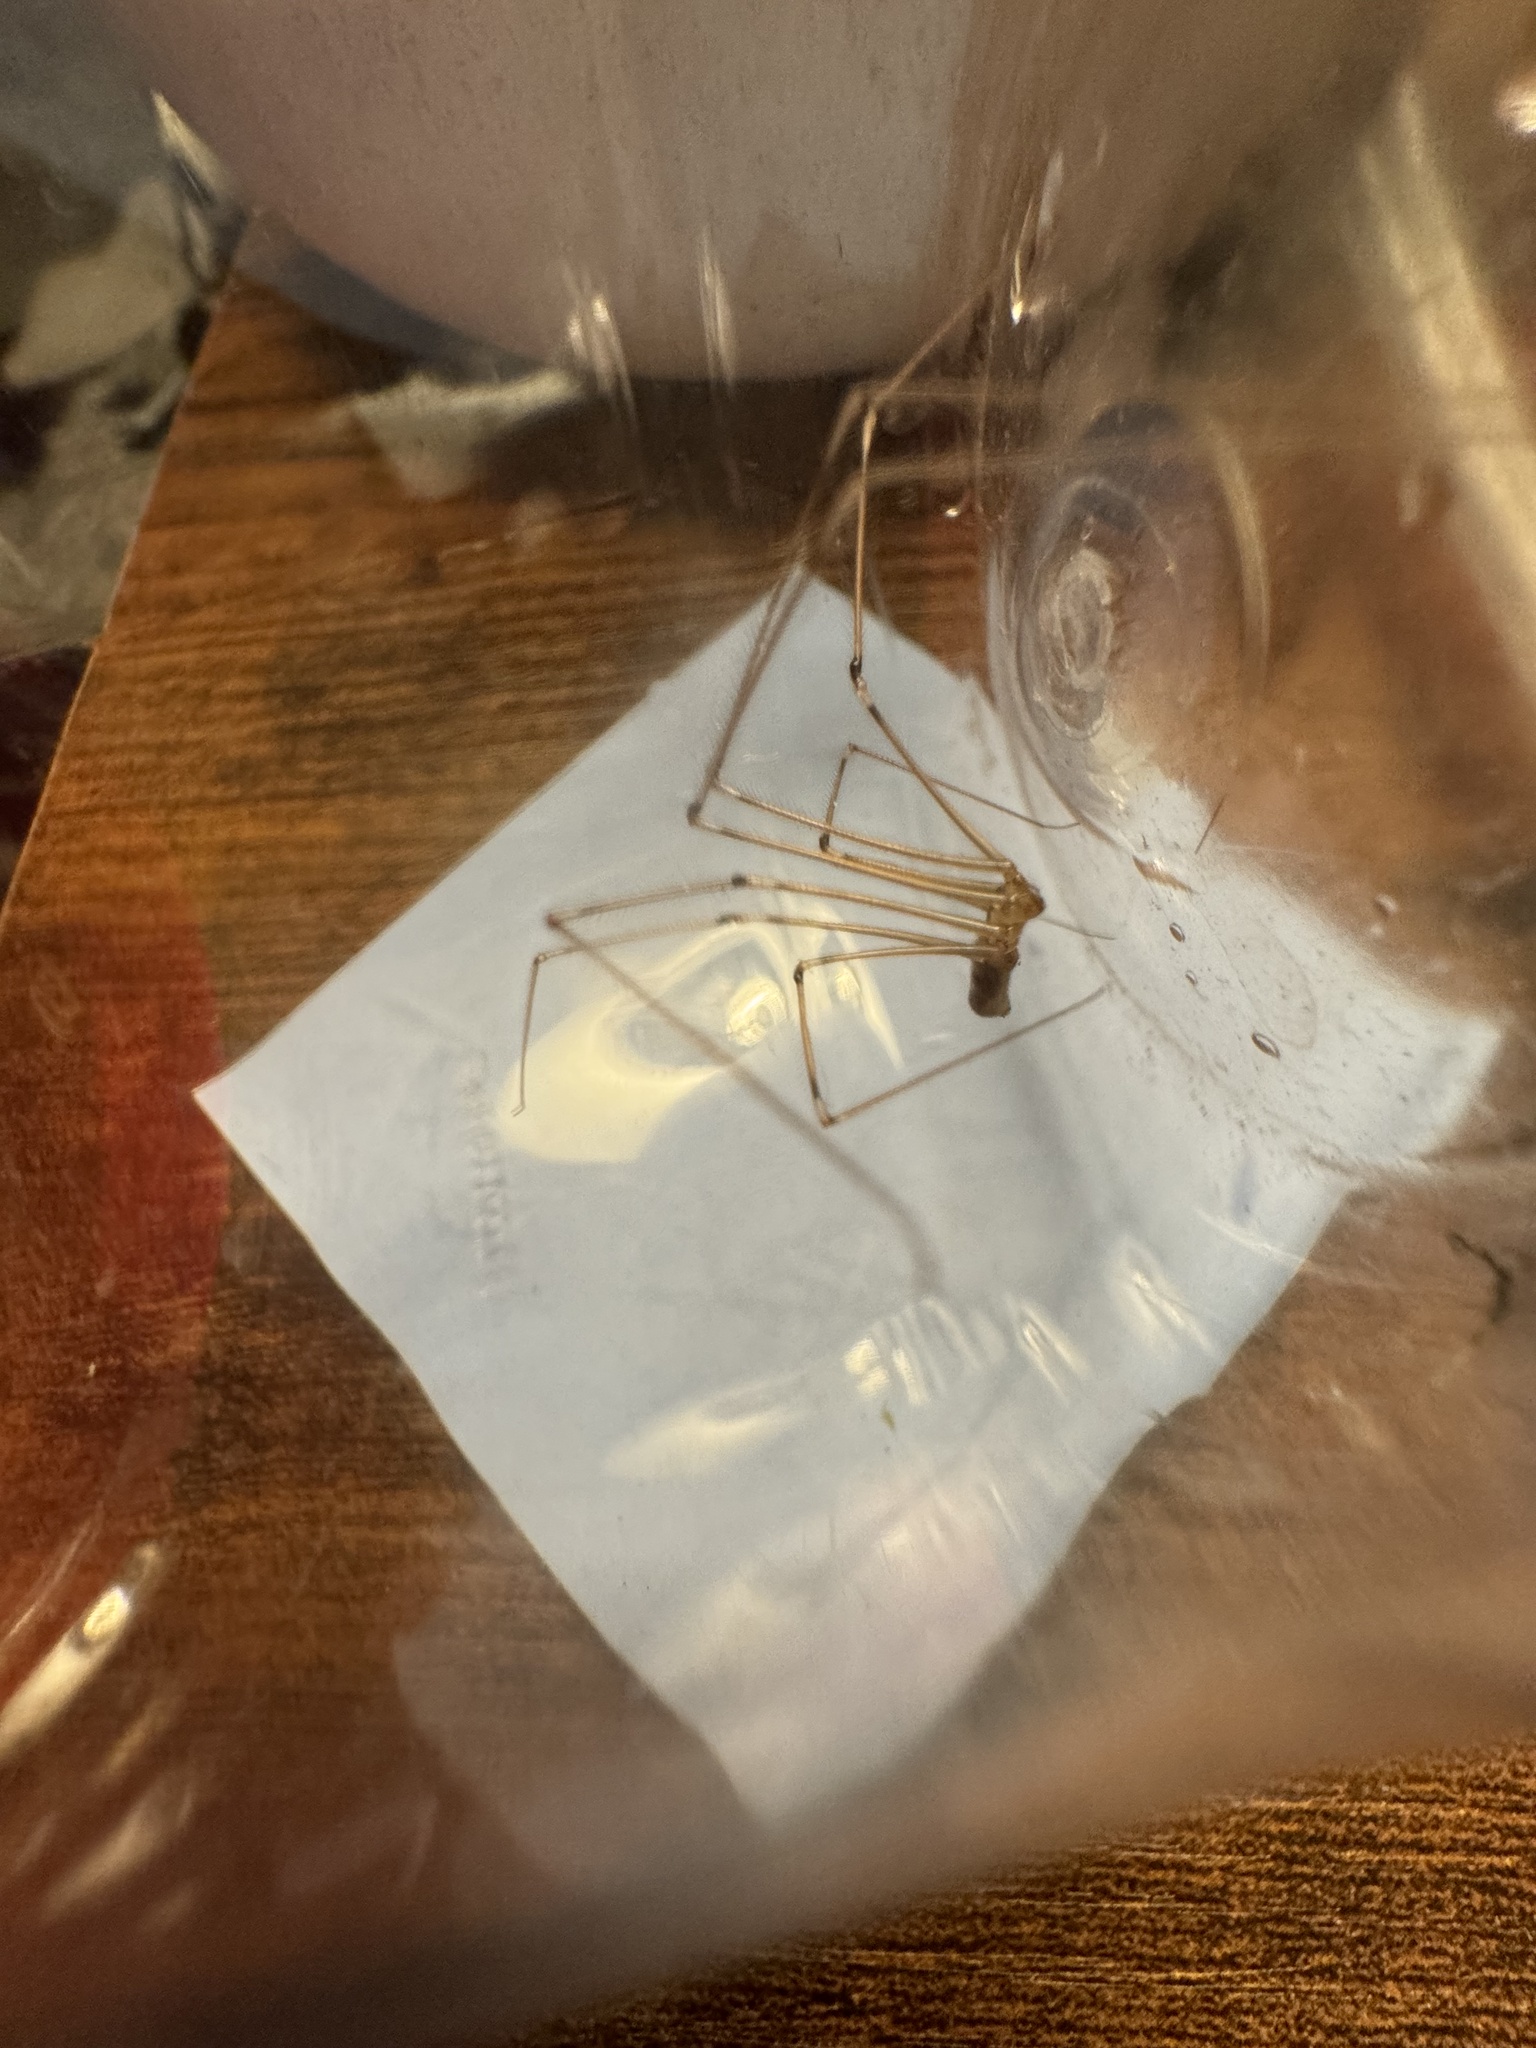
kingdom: Animalia
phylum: Arthropoda
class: Arachnida
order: Araneae
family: Pholcidae
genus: Pholcus
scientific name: Pholcus phalangioides
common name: Longbodied cellar spider
